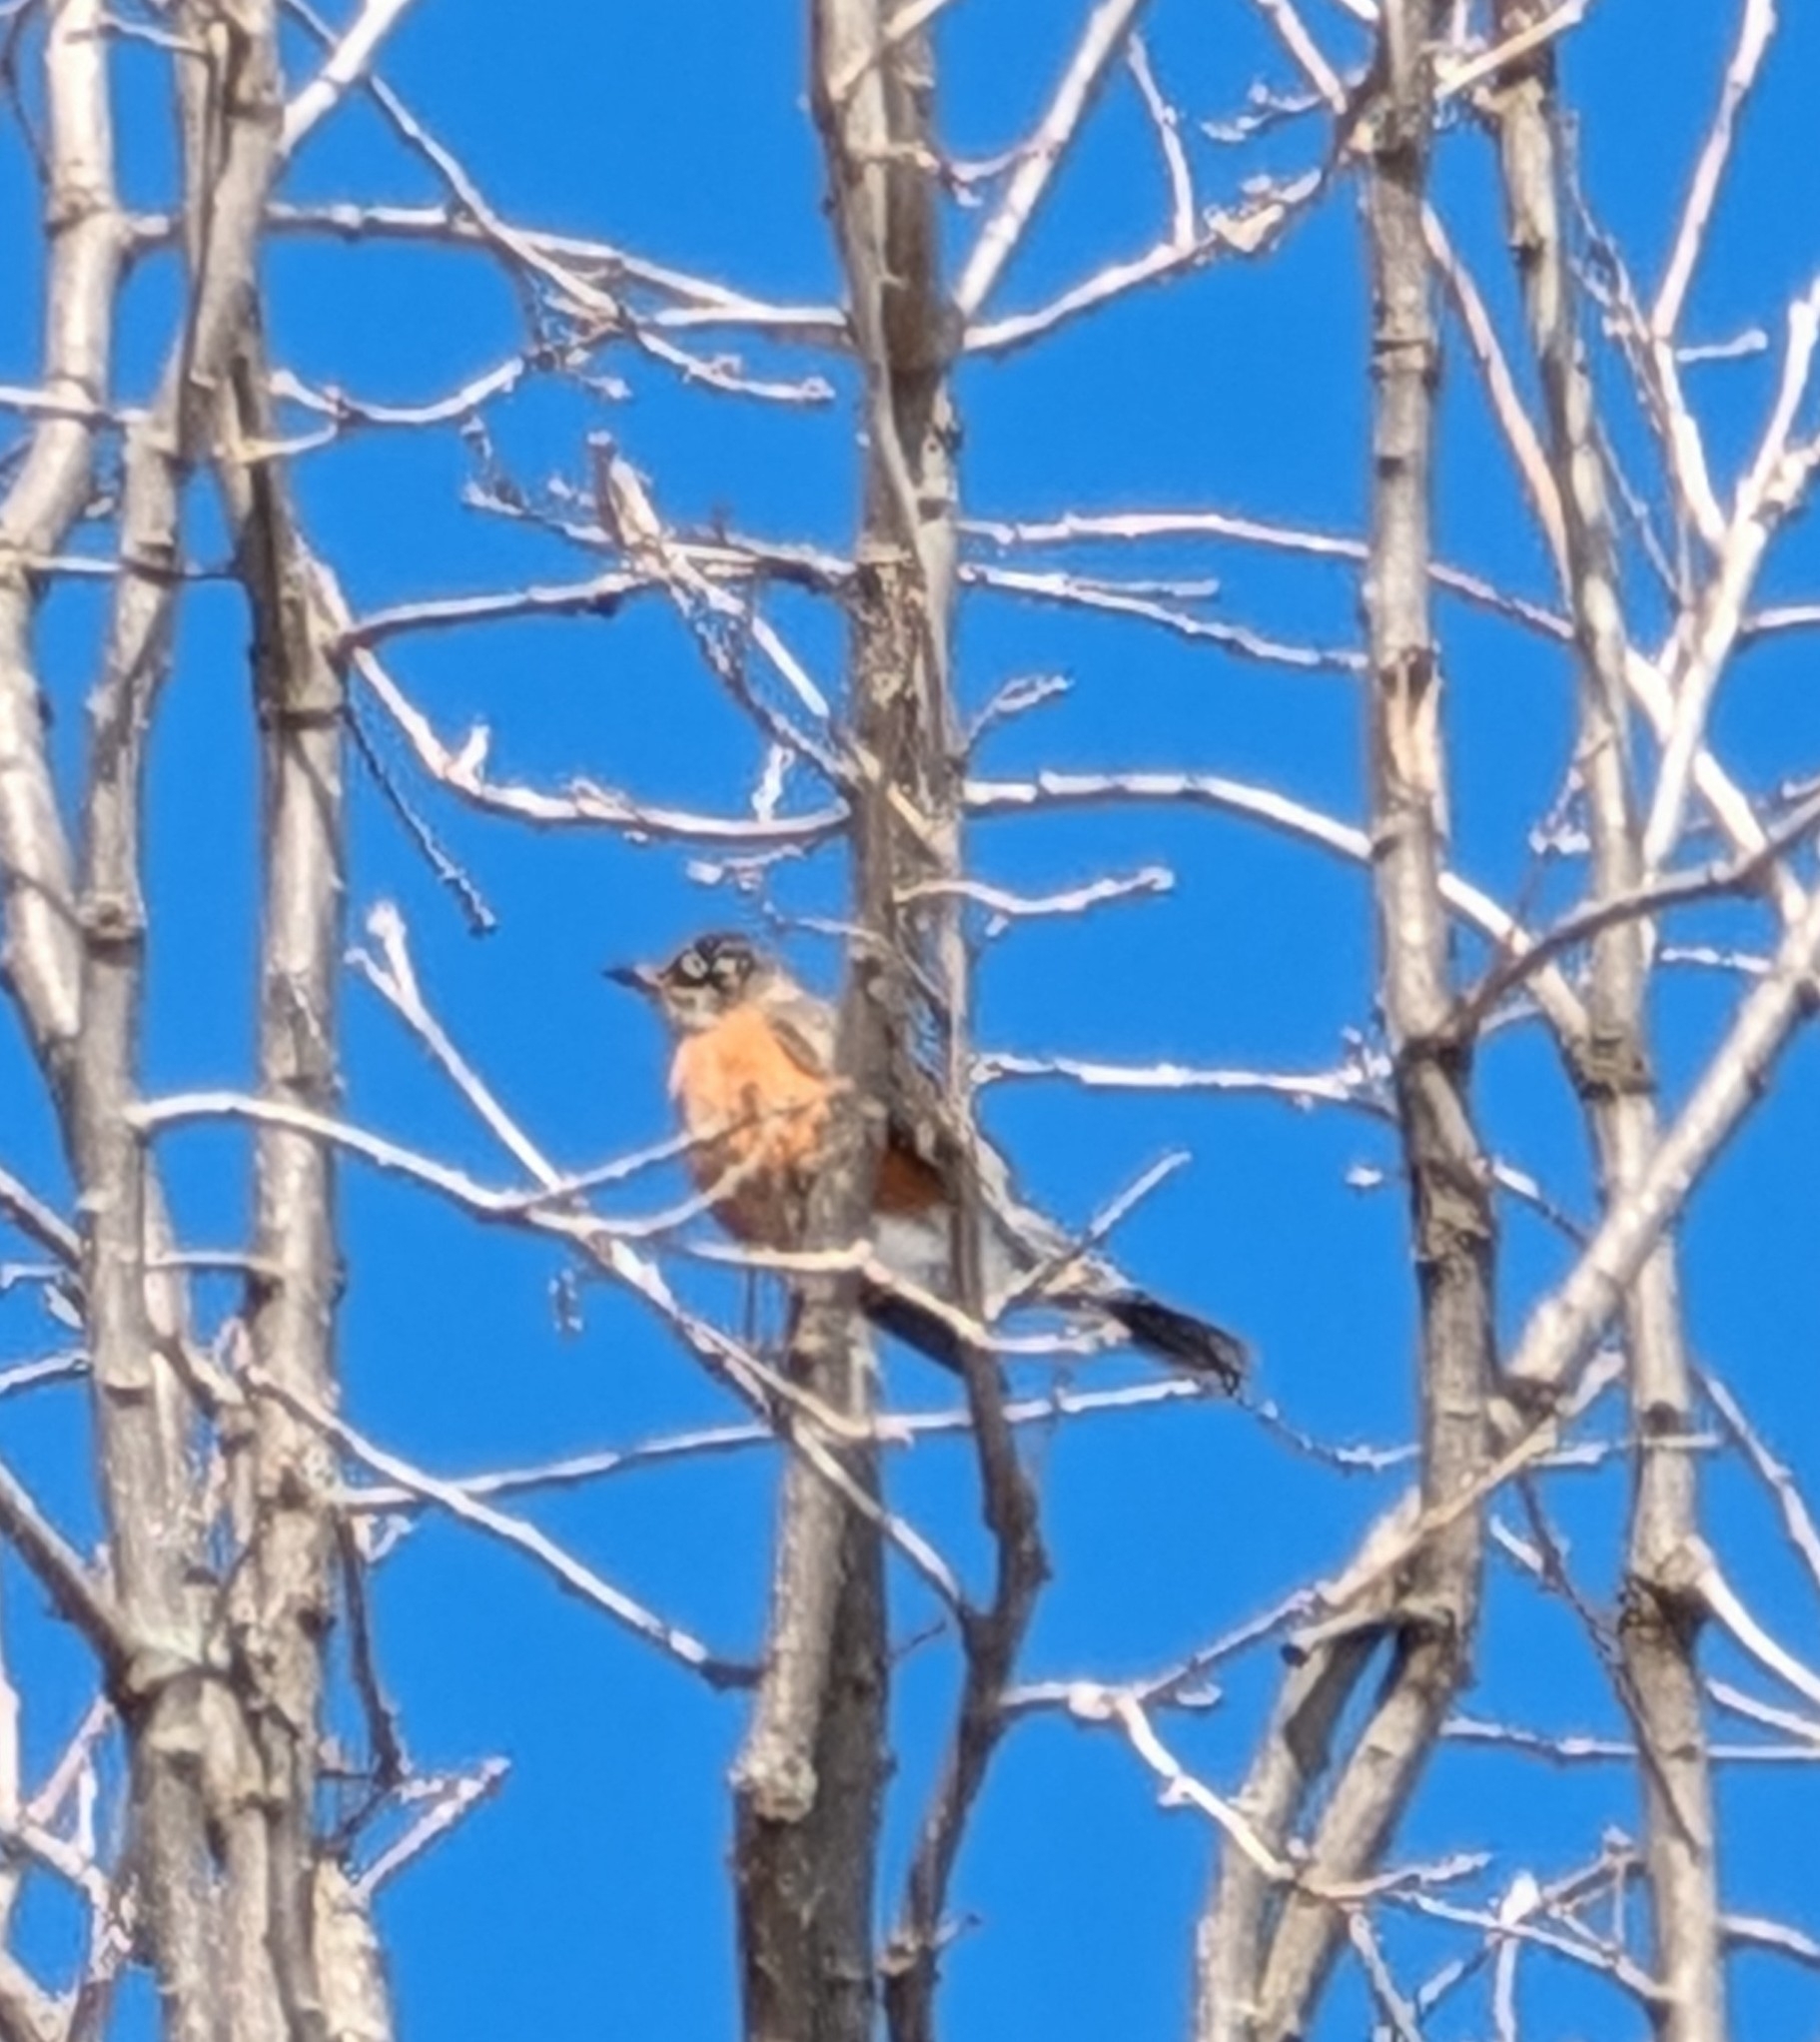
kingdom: Animalia
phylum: Chordata
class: Aves
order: Passeriformes
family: Turdidae
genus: Turdus
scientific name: Turdus migratorius
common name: American robin
